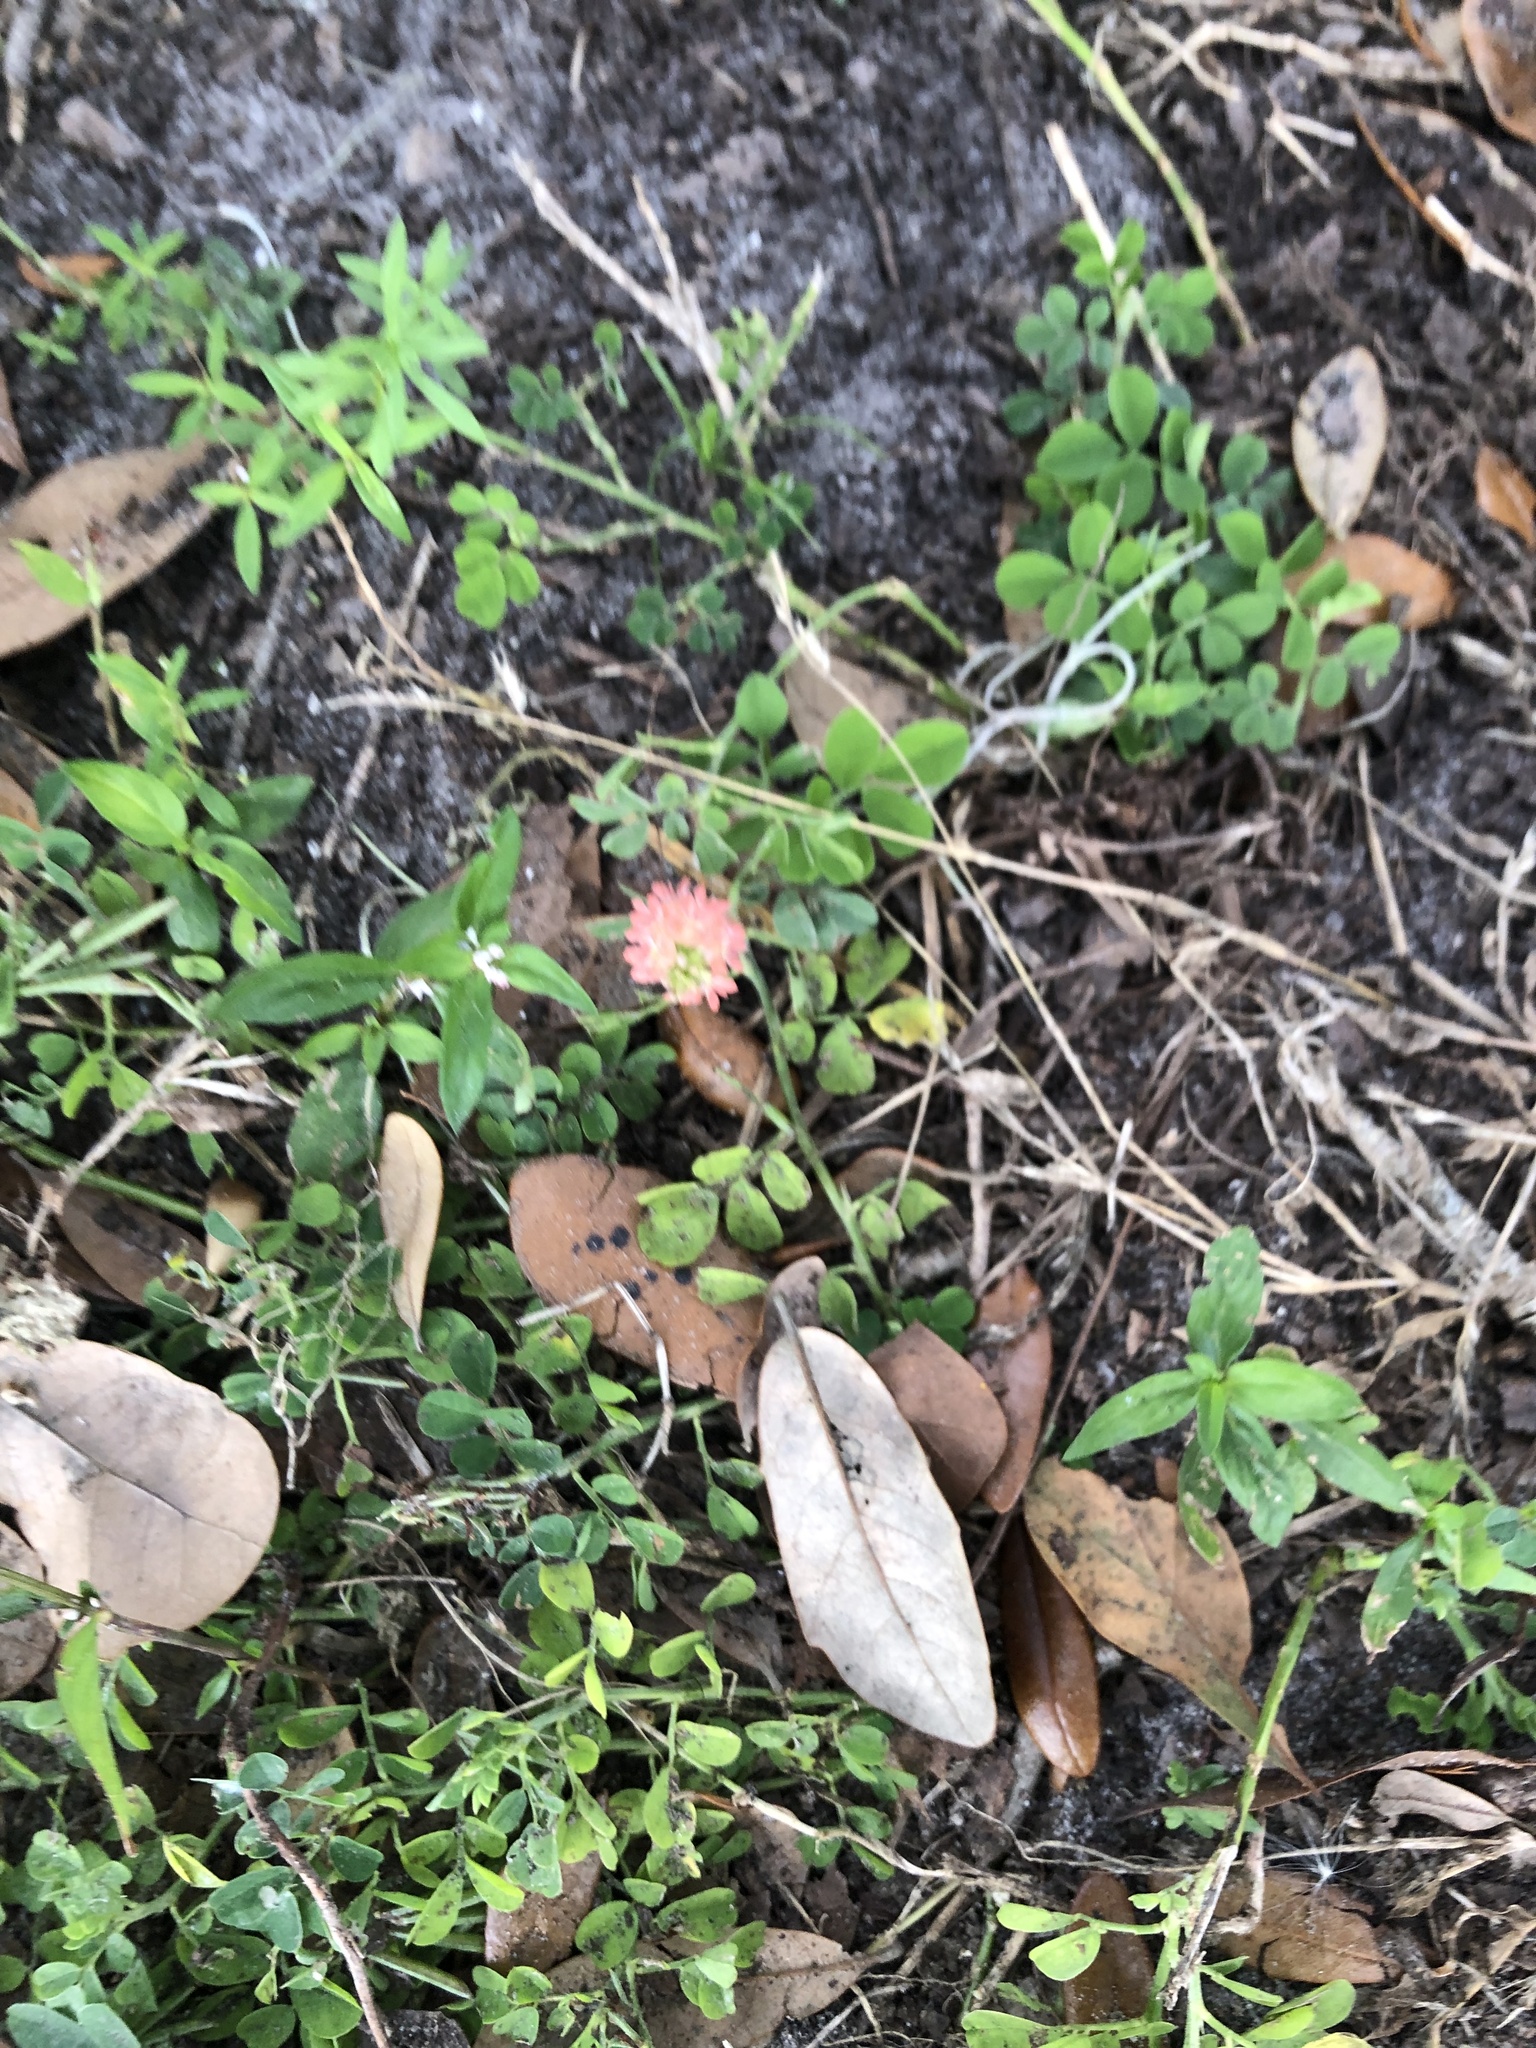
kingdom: Plantae
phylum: Tracheophyta
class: Magnoliopsida
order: Fabales
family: Fabaceae
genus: Indigofera
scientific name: Indigofera spicata
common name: Creeping indigo
